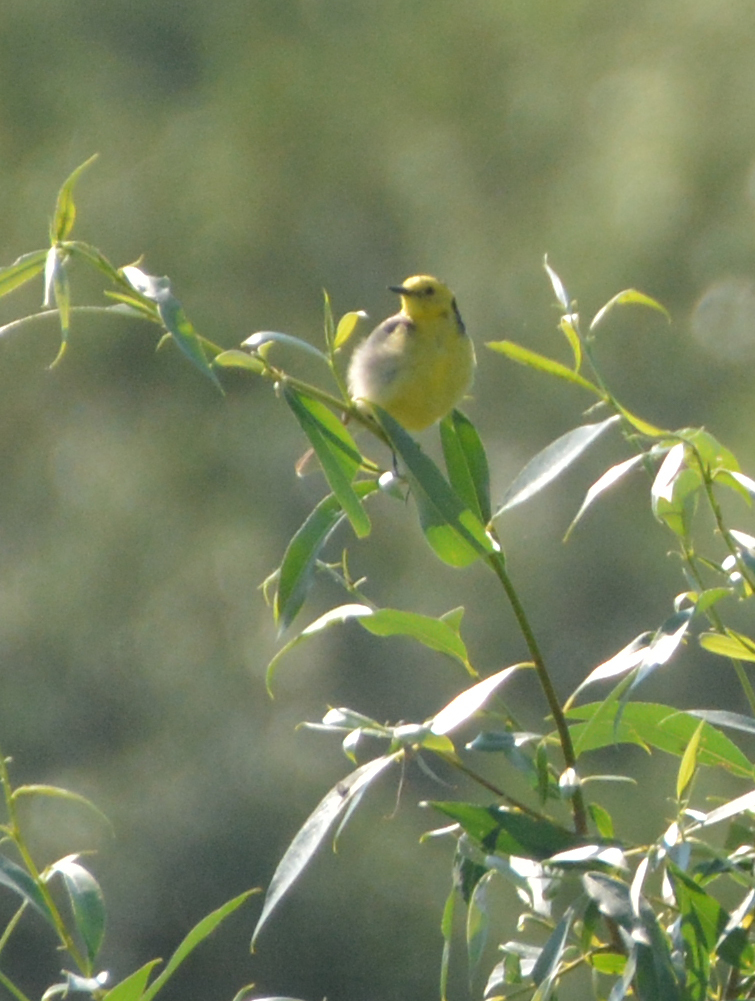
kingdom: Animalia
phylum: Chordata
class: Aves
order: Passeriformes
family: Motacillidae
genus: Motacilla
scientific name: Motacilla citreola
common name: Citrine wagtail
